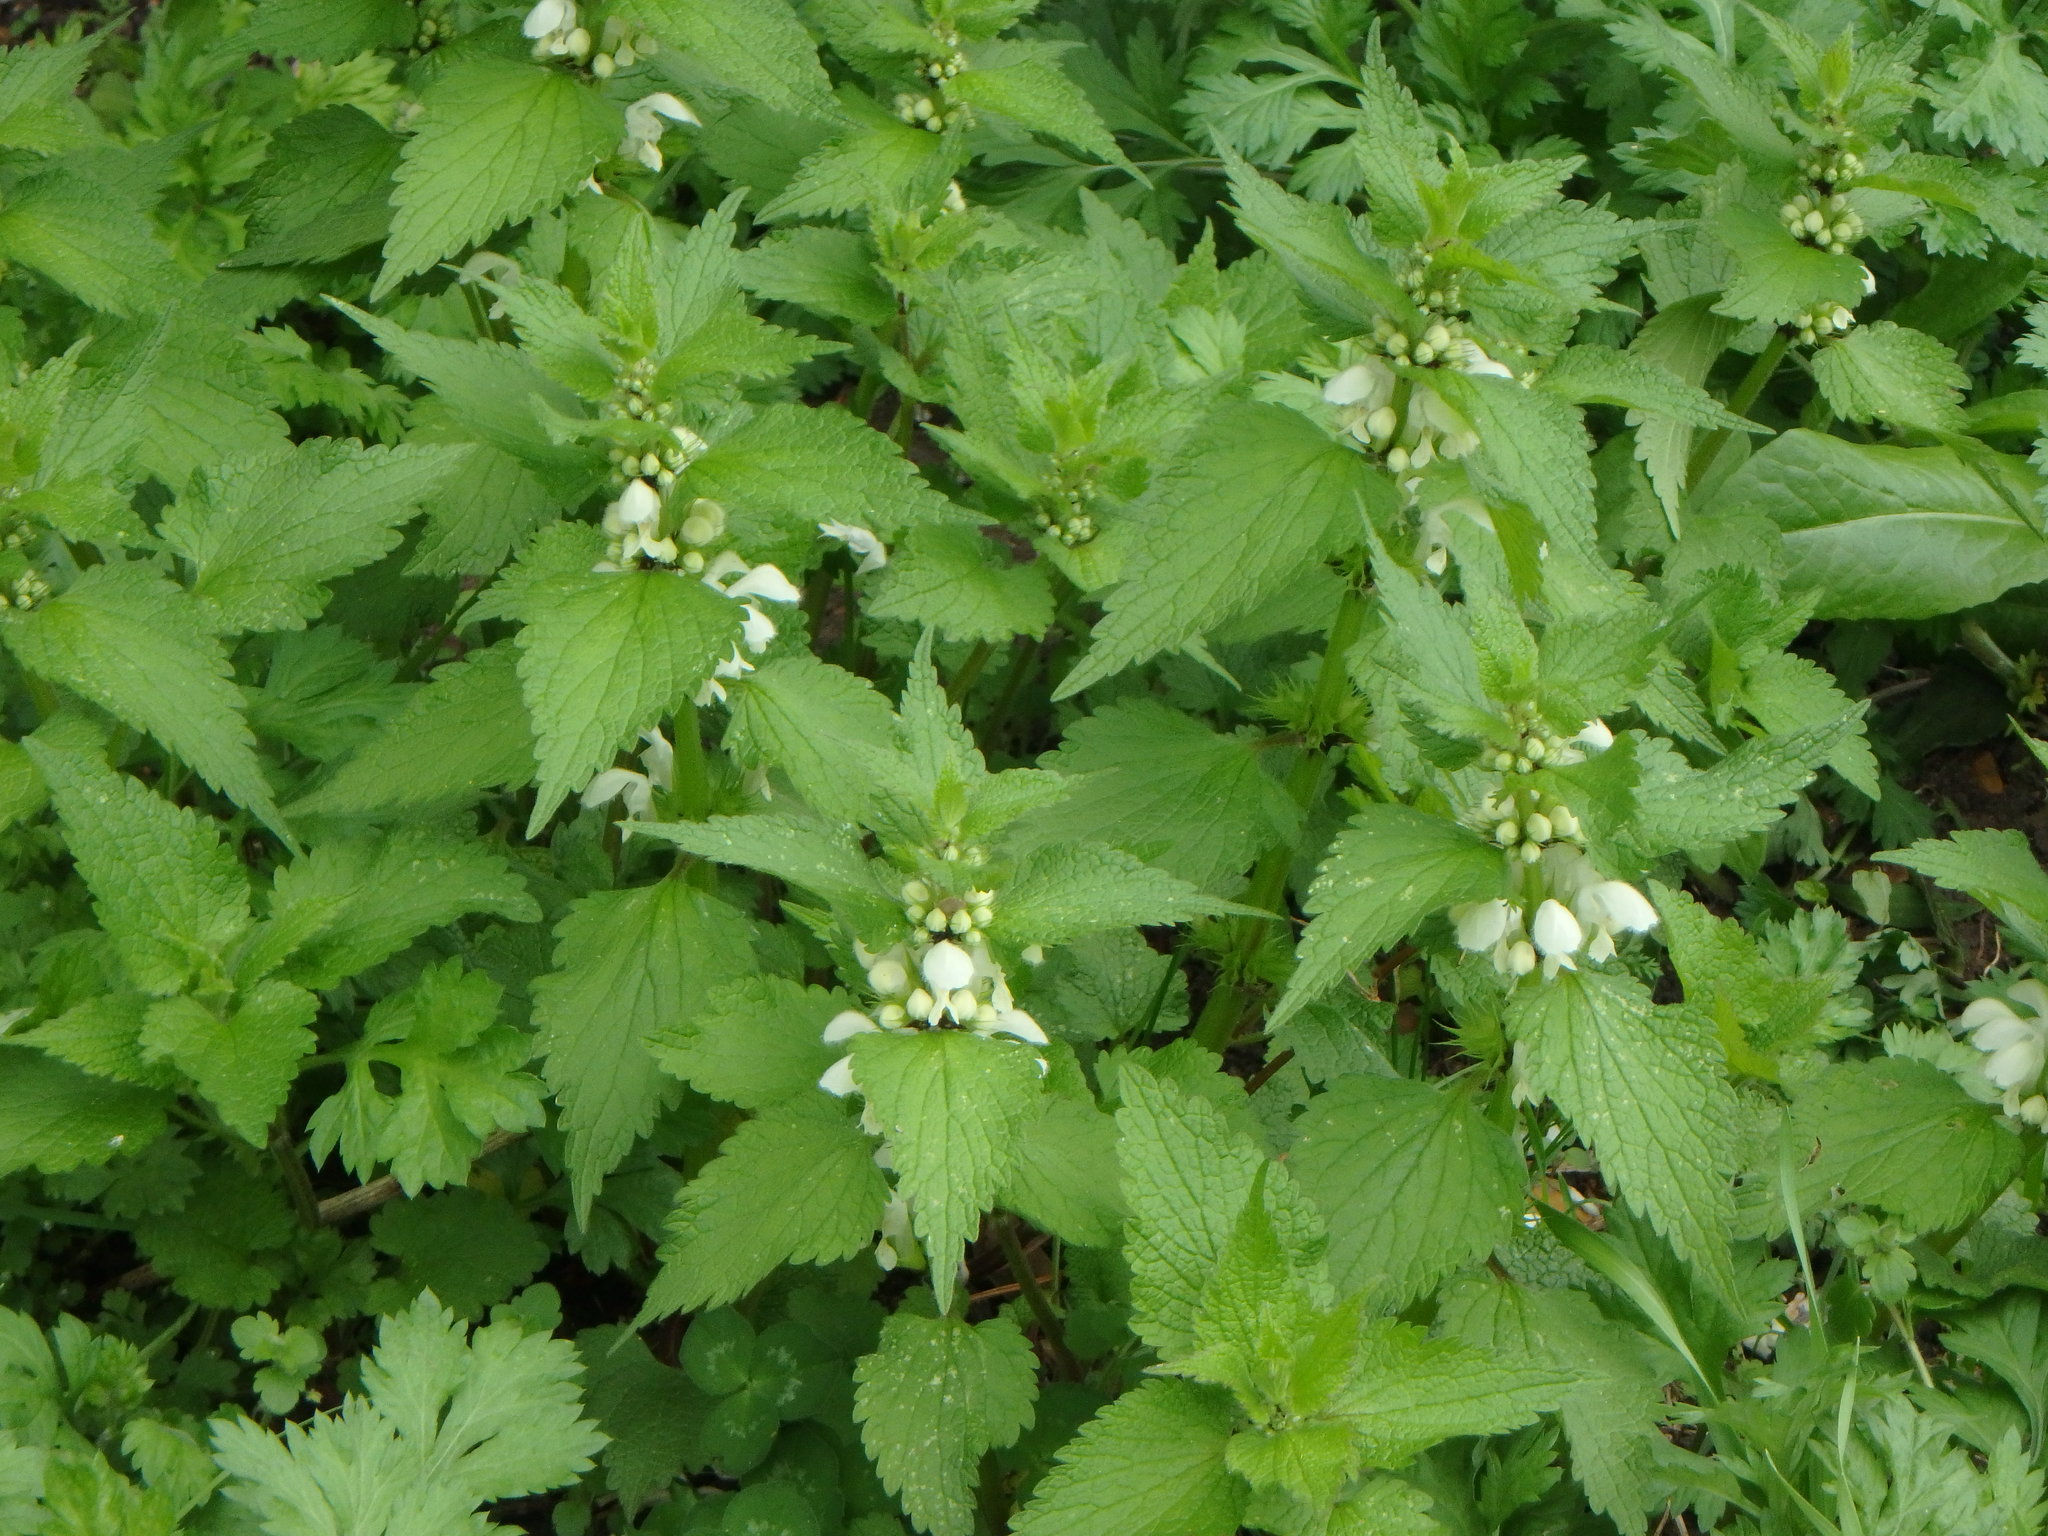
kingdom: Plantae
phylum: Tracheophyta
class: Magnoliopsida
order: Lamiales
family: Lamiaceae
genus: Lamium
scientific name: Lamium album
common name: White dead-nettle
